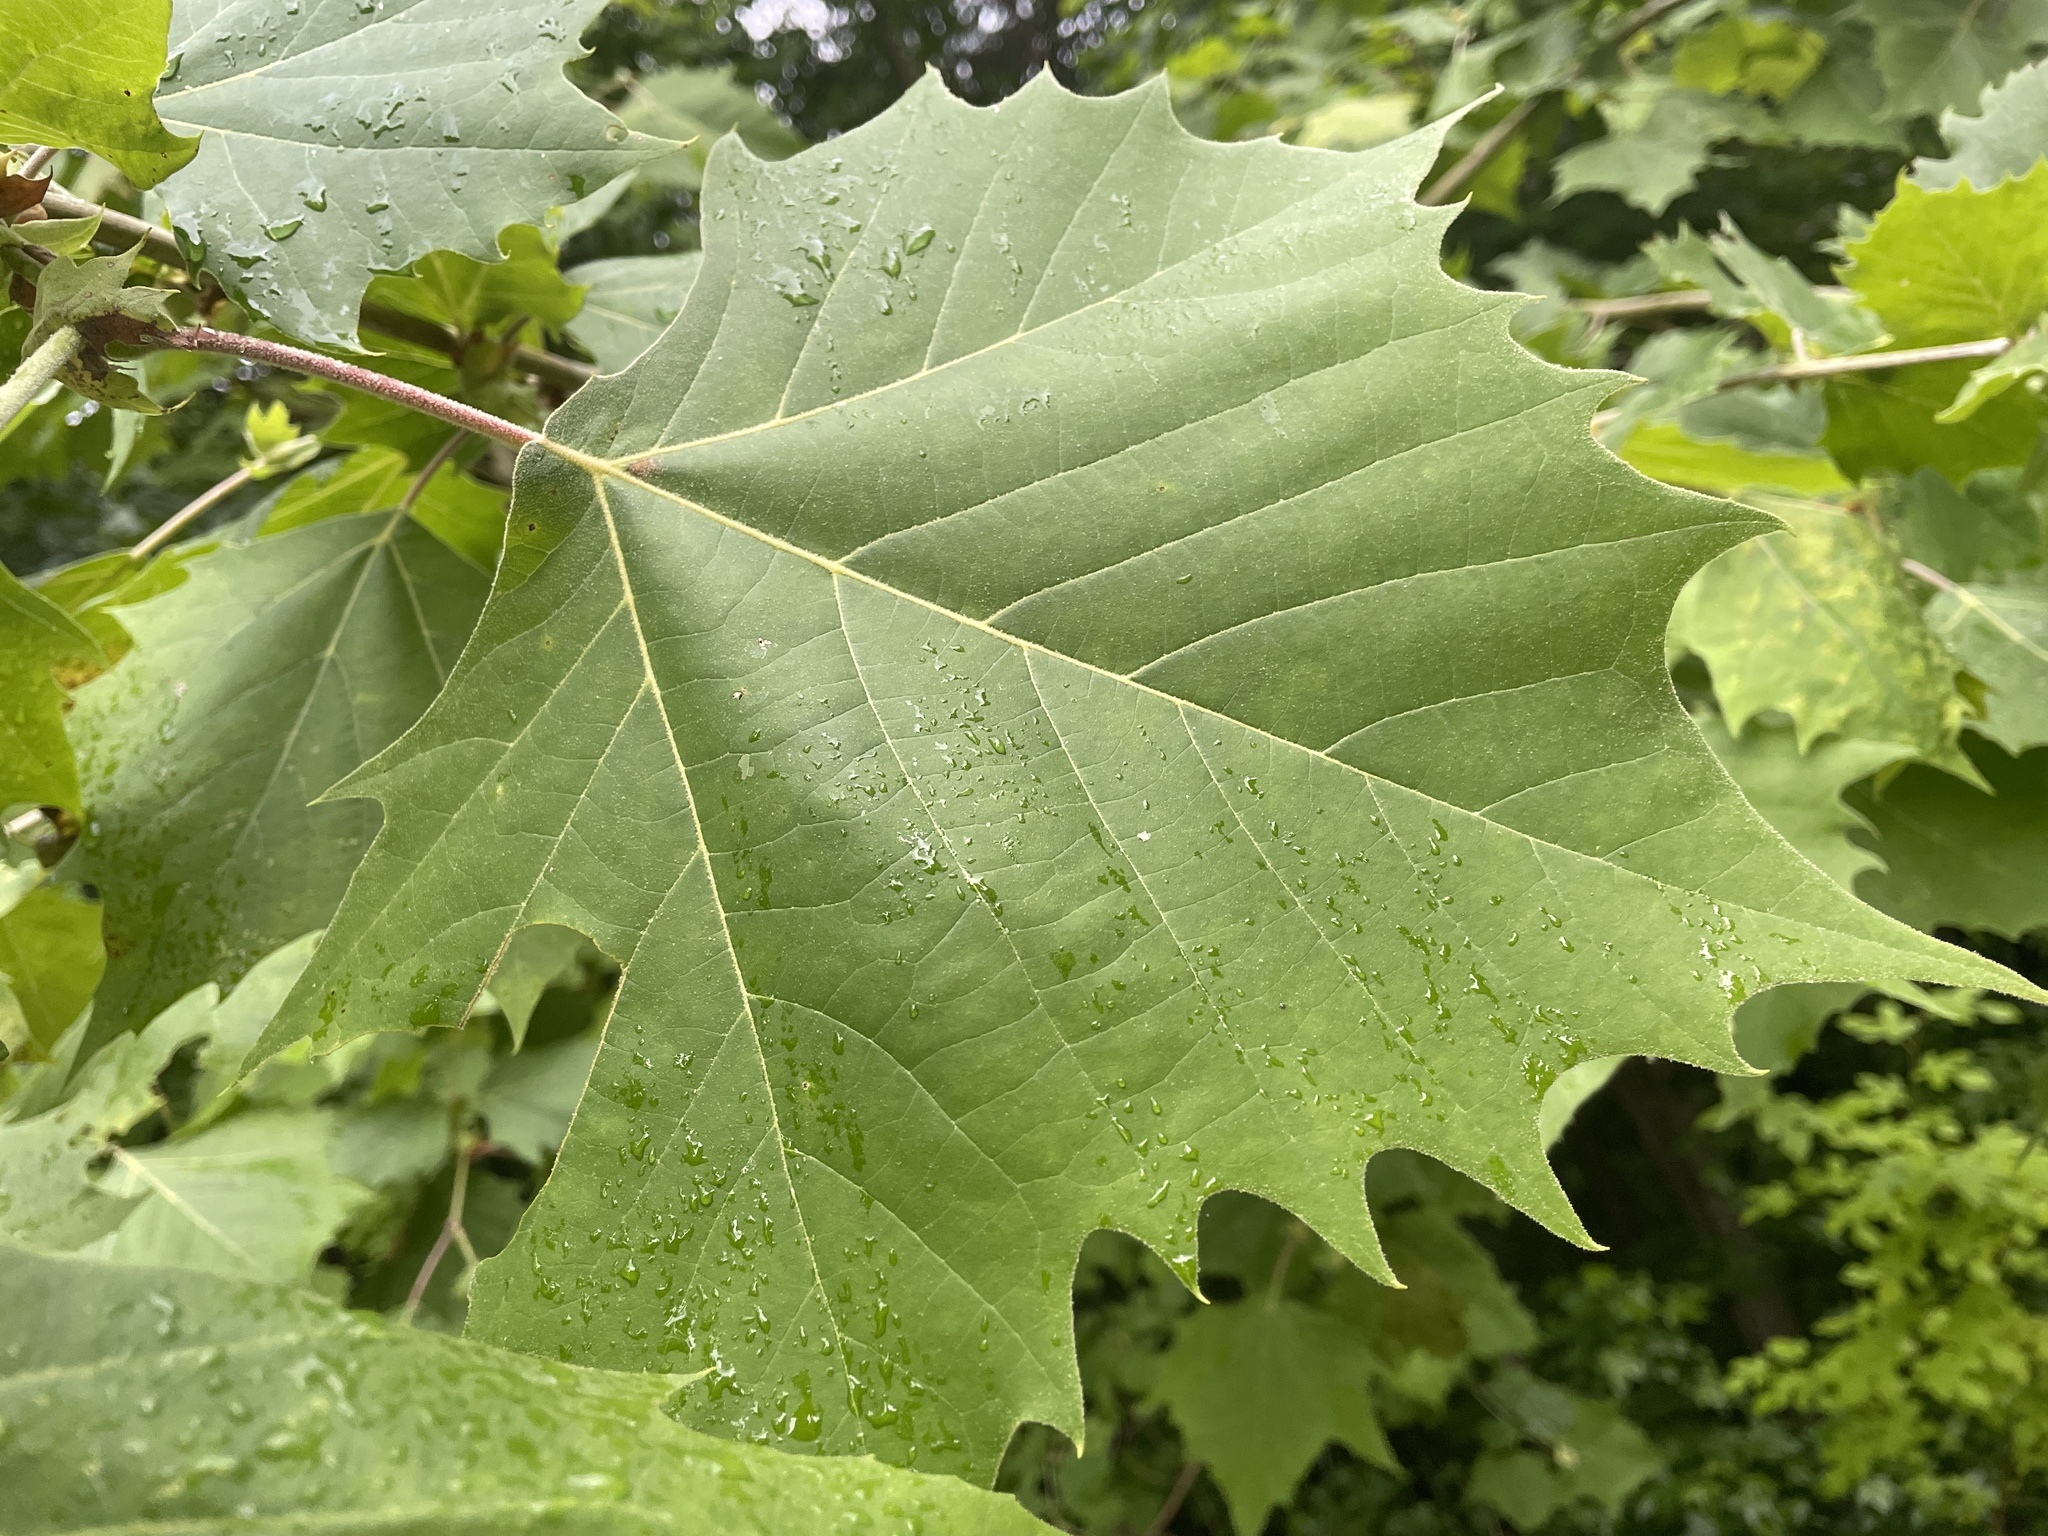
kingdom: Plantae
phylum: Tracheophyta
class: Magnoliopsida
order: Proteales
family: Platanaceae
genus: Platanus
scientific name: Platanus occidentalis
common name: American sycamore
